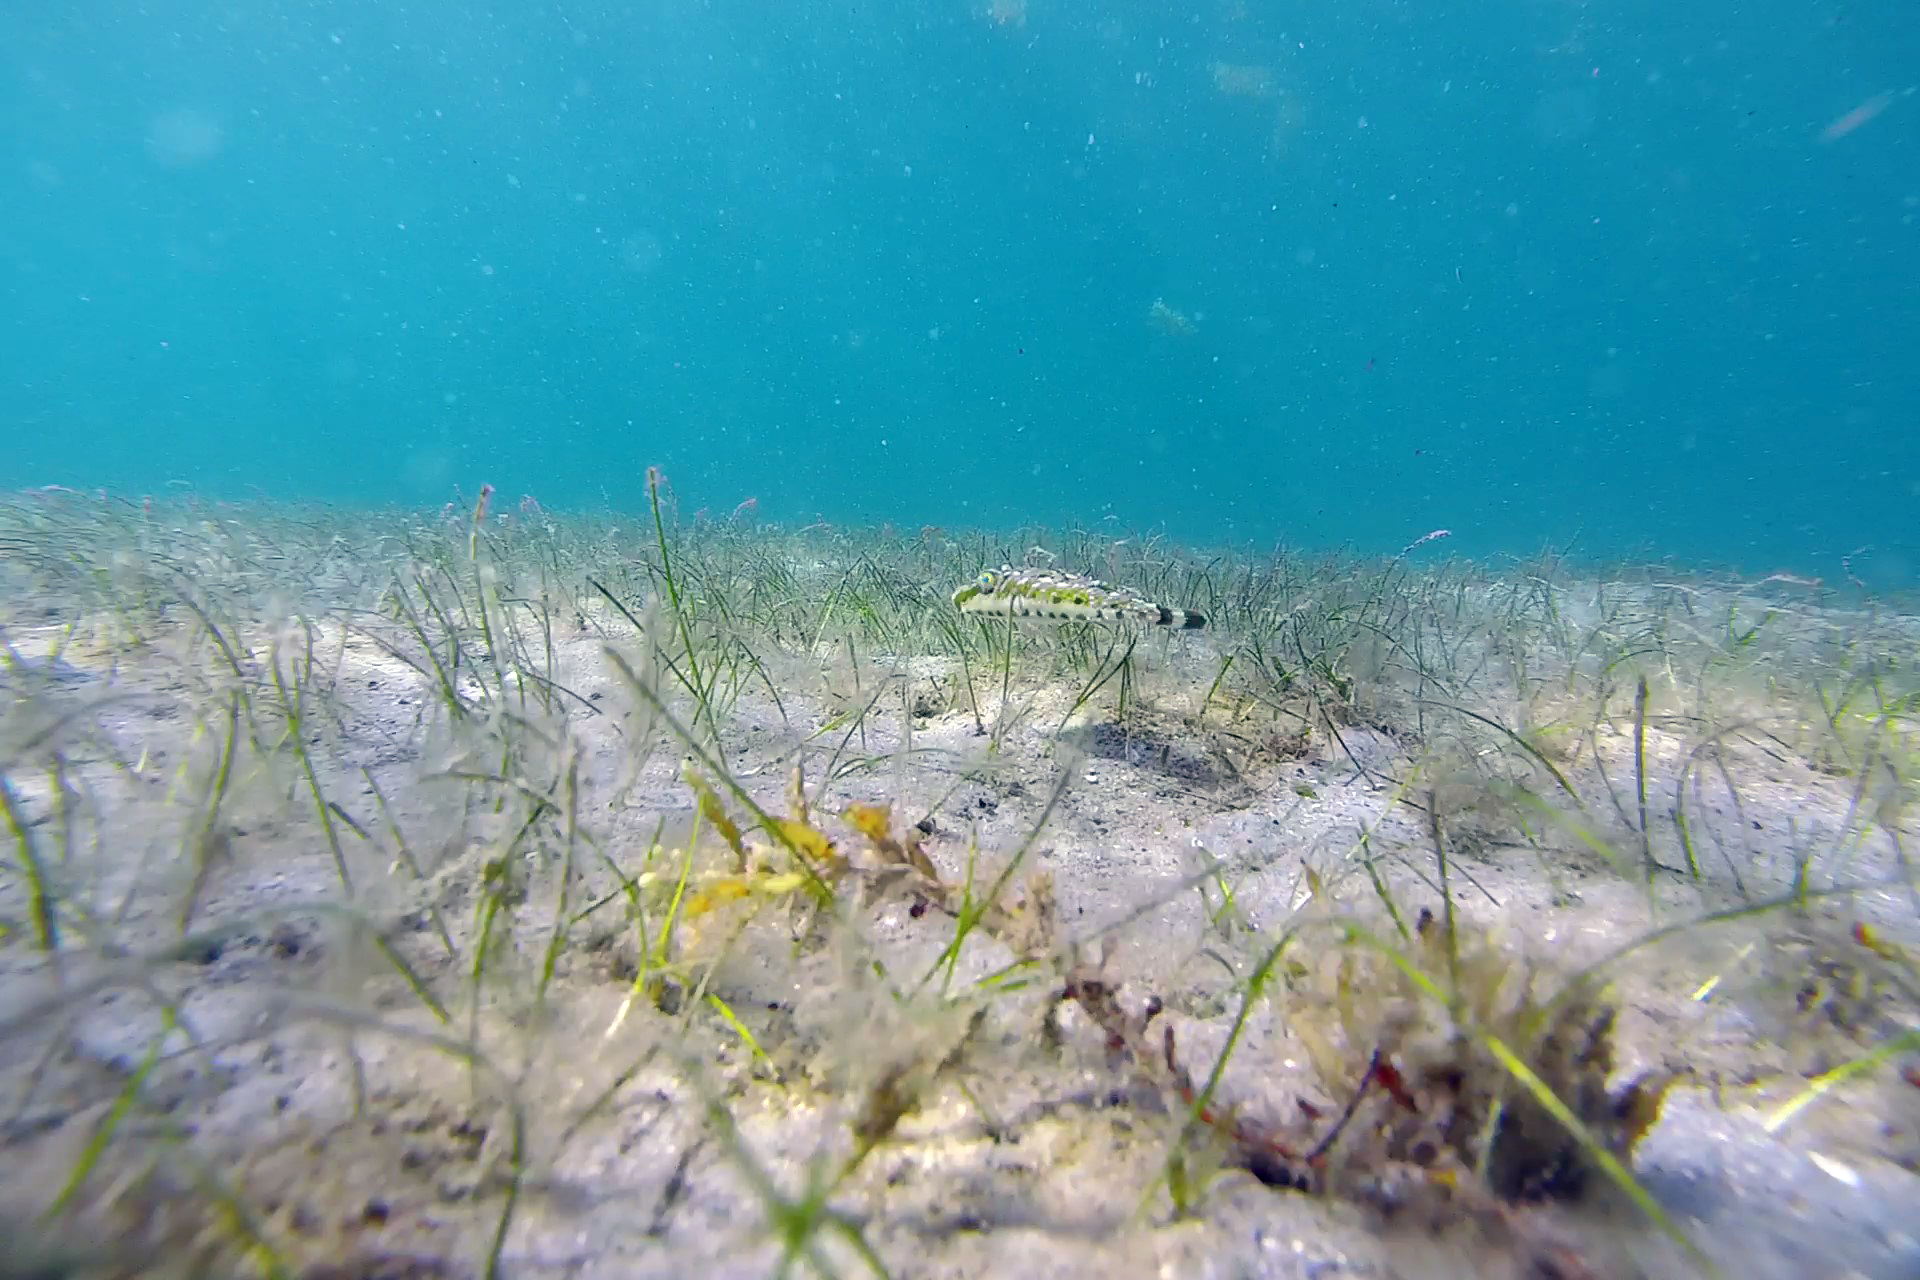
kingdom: Animalia
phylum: Chordata
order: Tetraodontiformes
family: Tetraodontidae
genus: Sphoeroides
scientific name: Sphoeroides spengleri
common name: Bandtail puffer
